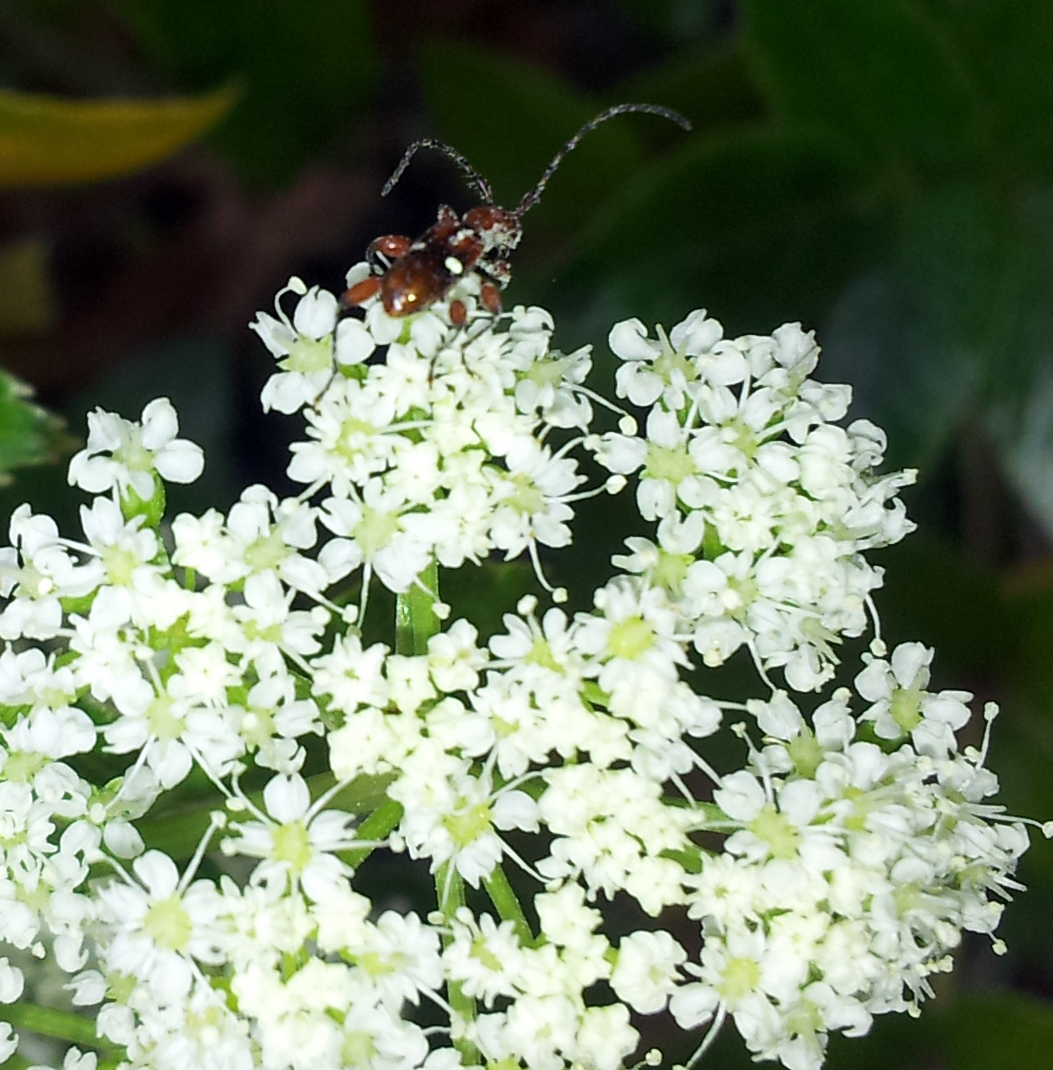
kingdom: Animalia
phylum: Arthropoda
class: Insecta
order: Coleoptera
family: Cerambycidae
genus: Zorion
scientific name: Zorion batesi
